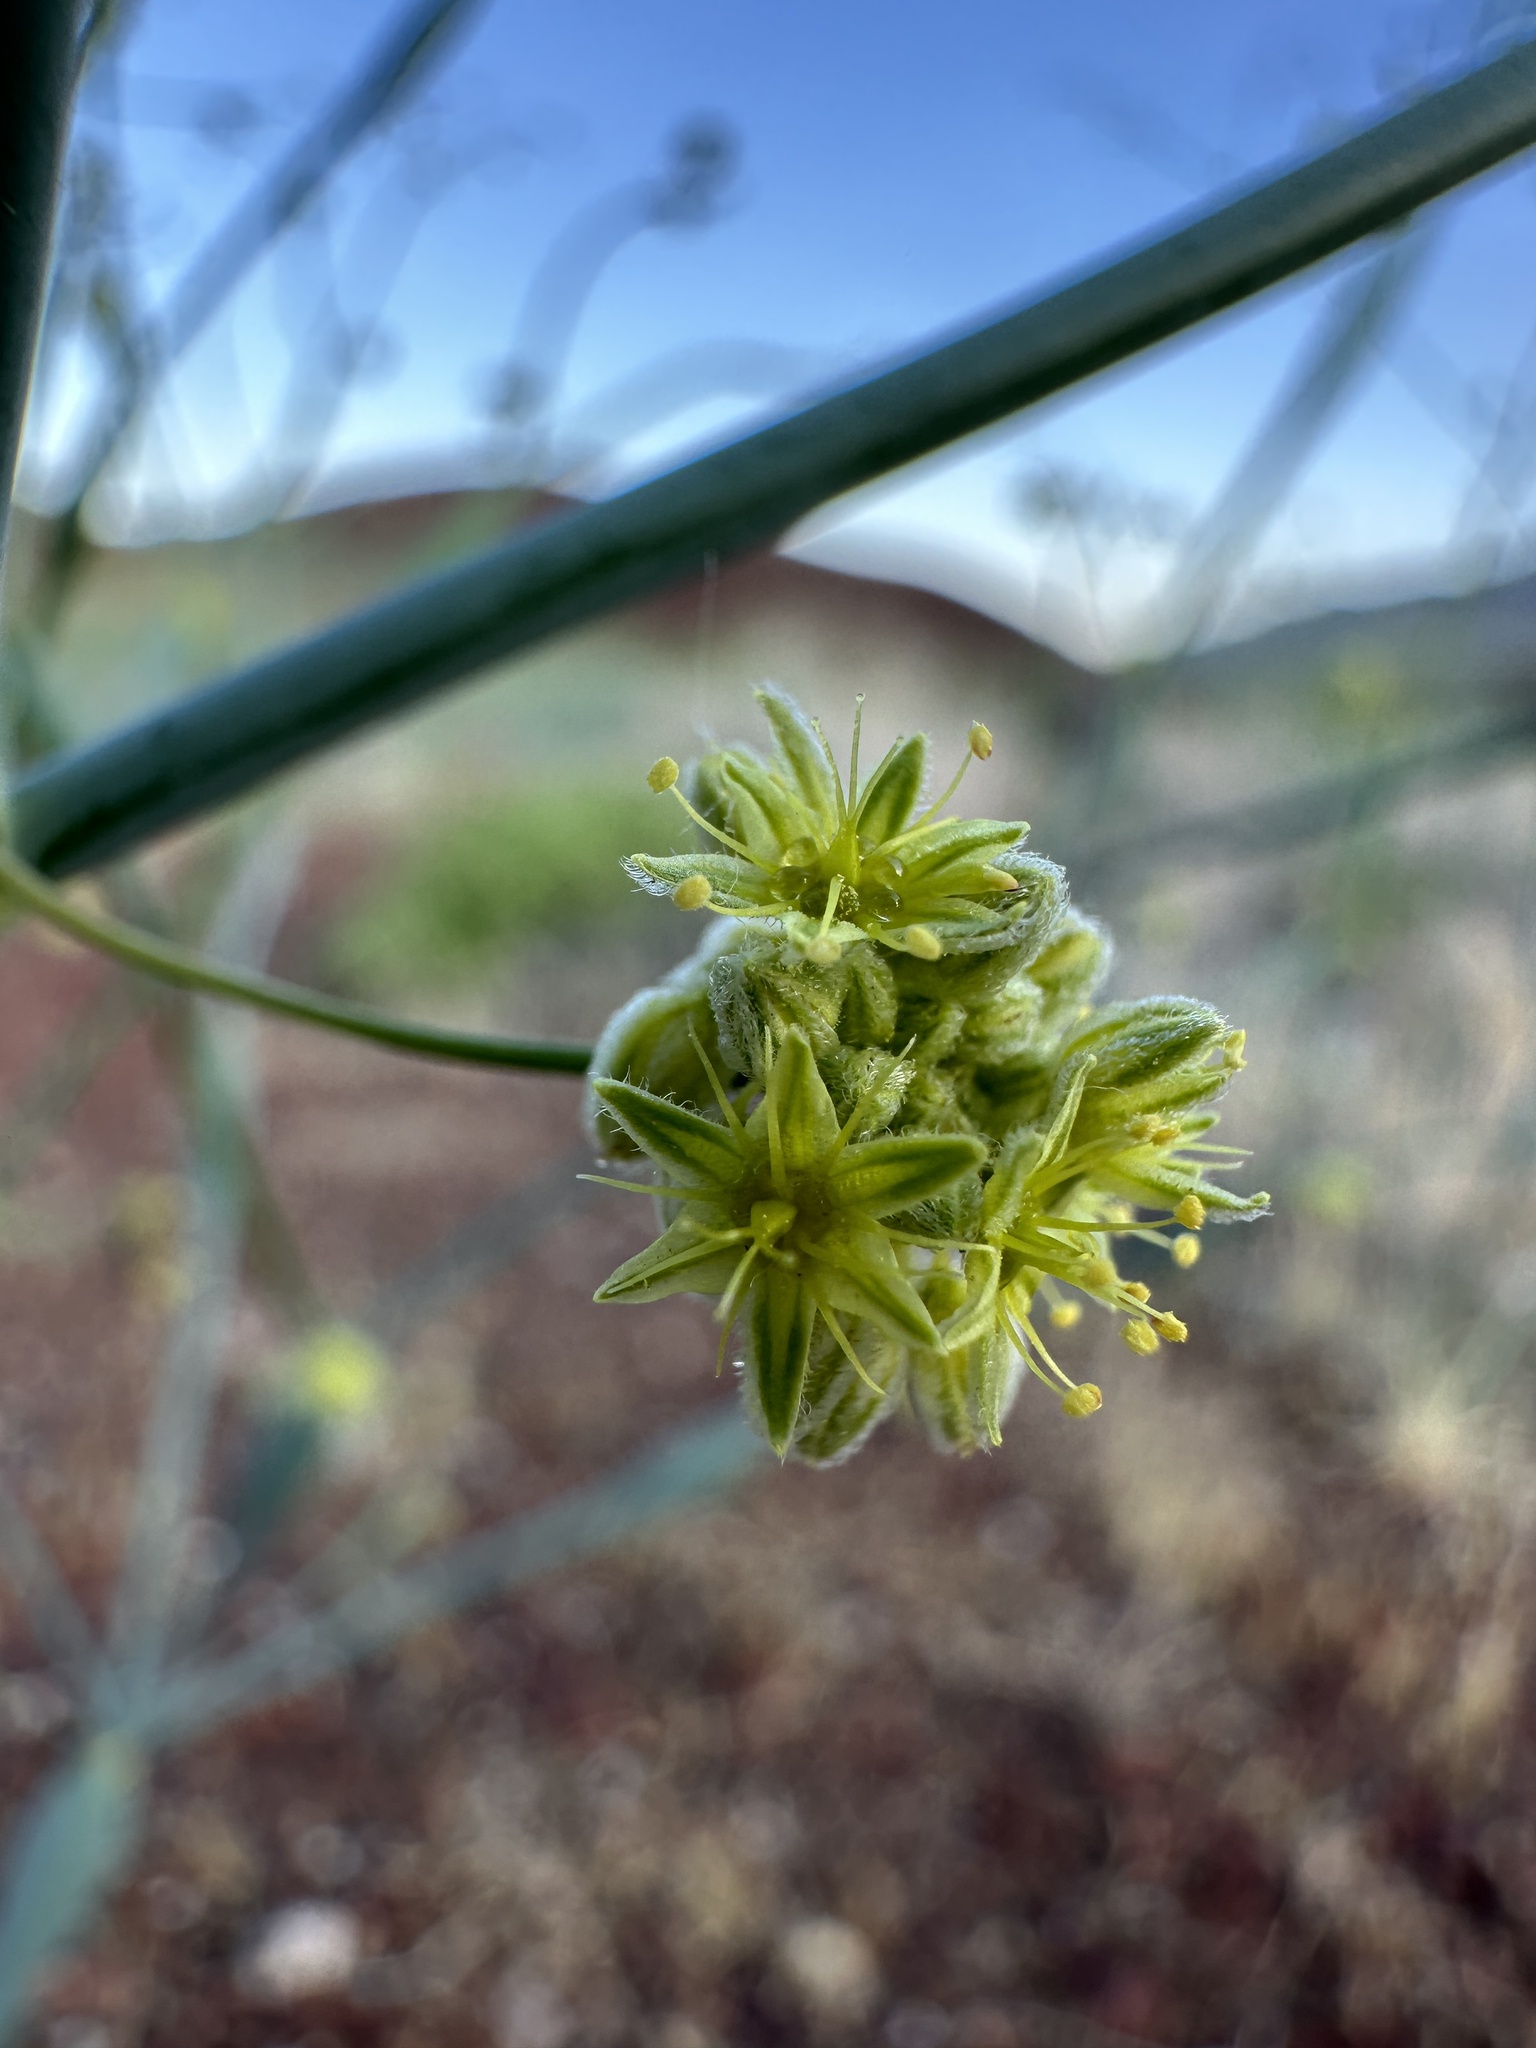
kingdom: Plantae
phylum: Tracheophyta
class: Magnoliopsida
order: Caryophyllales
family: Polygonaceae
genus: Eriogonum
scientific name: Eriogonum inflatum
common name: Desert trumpet
